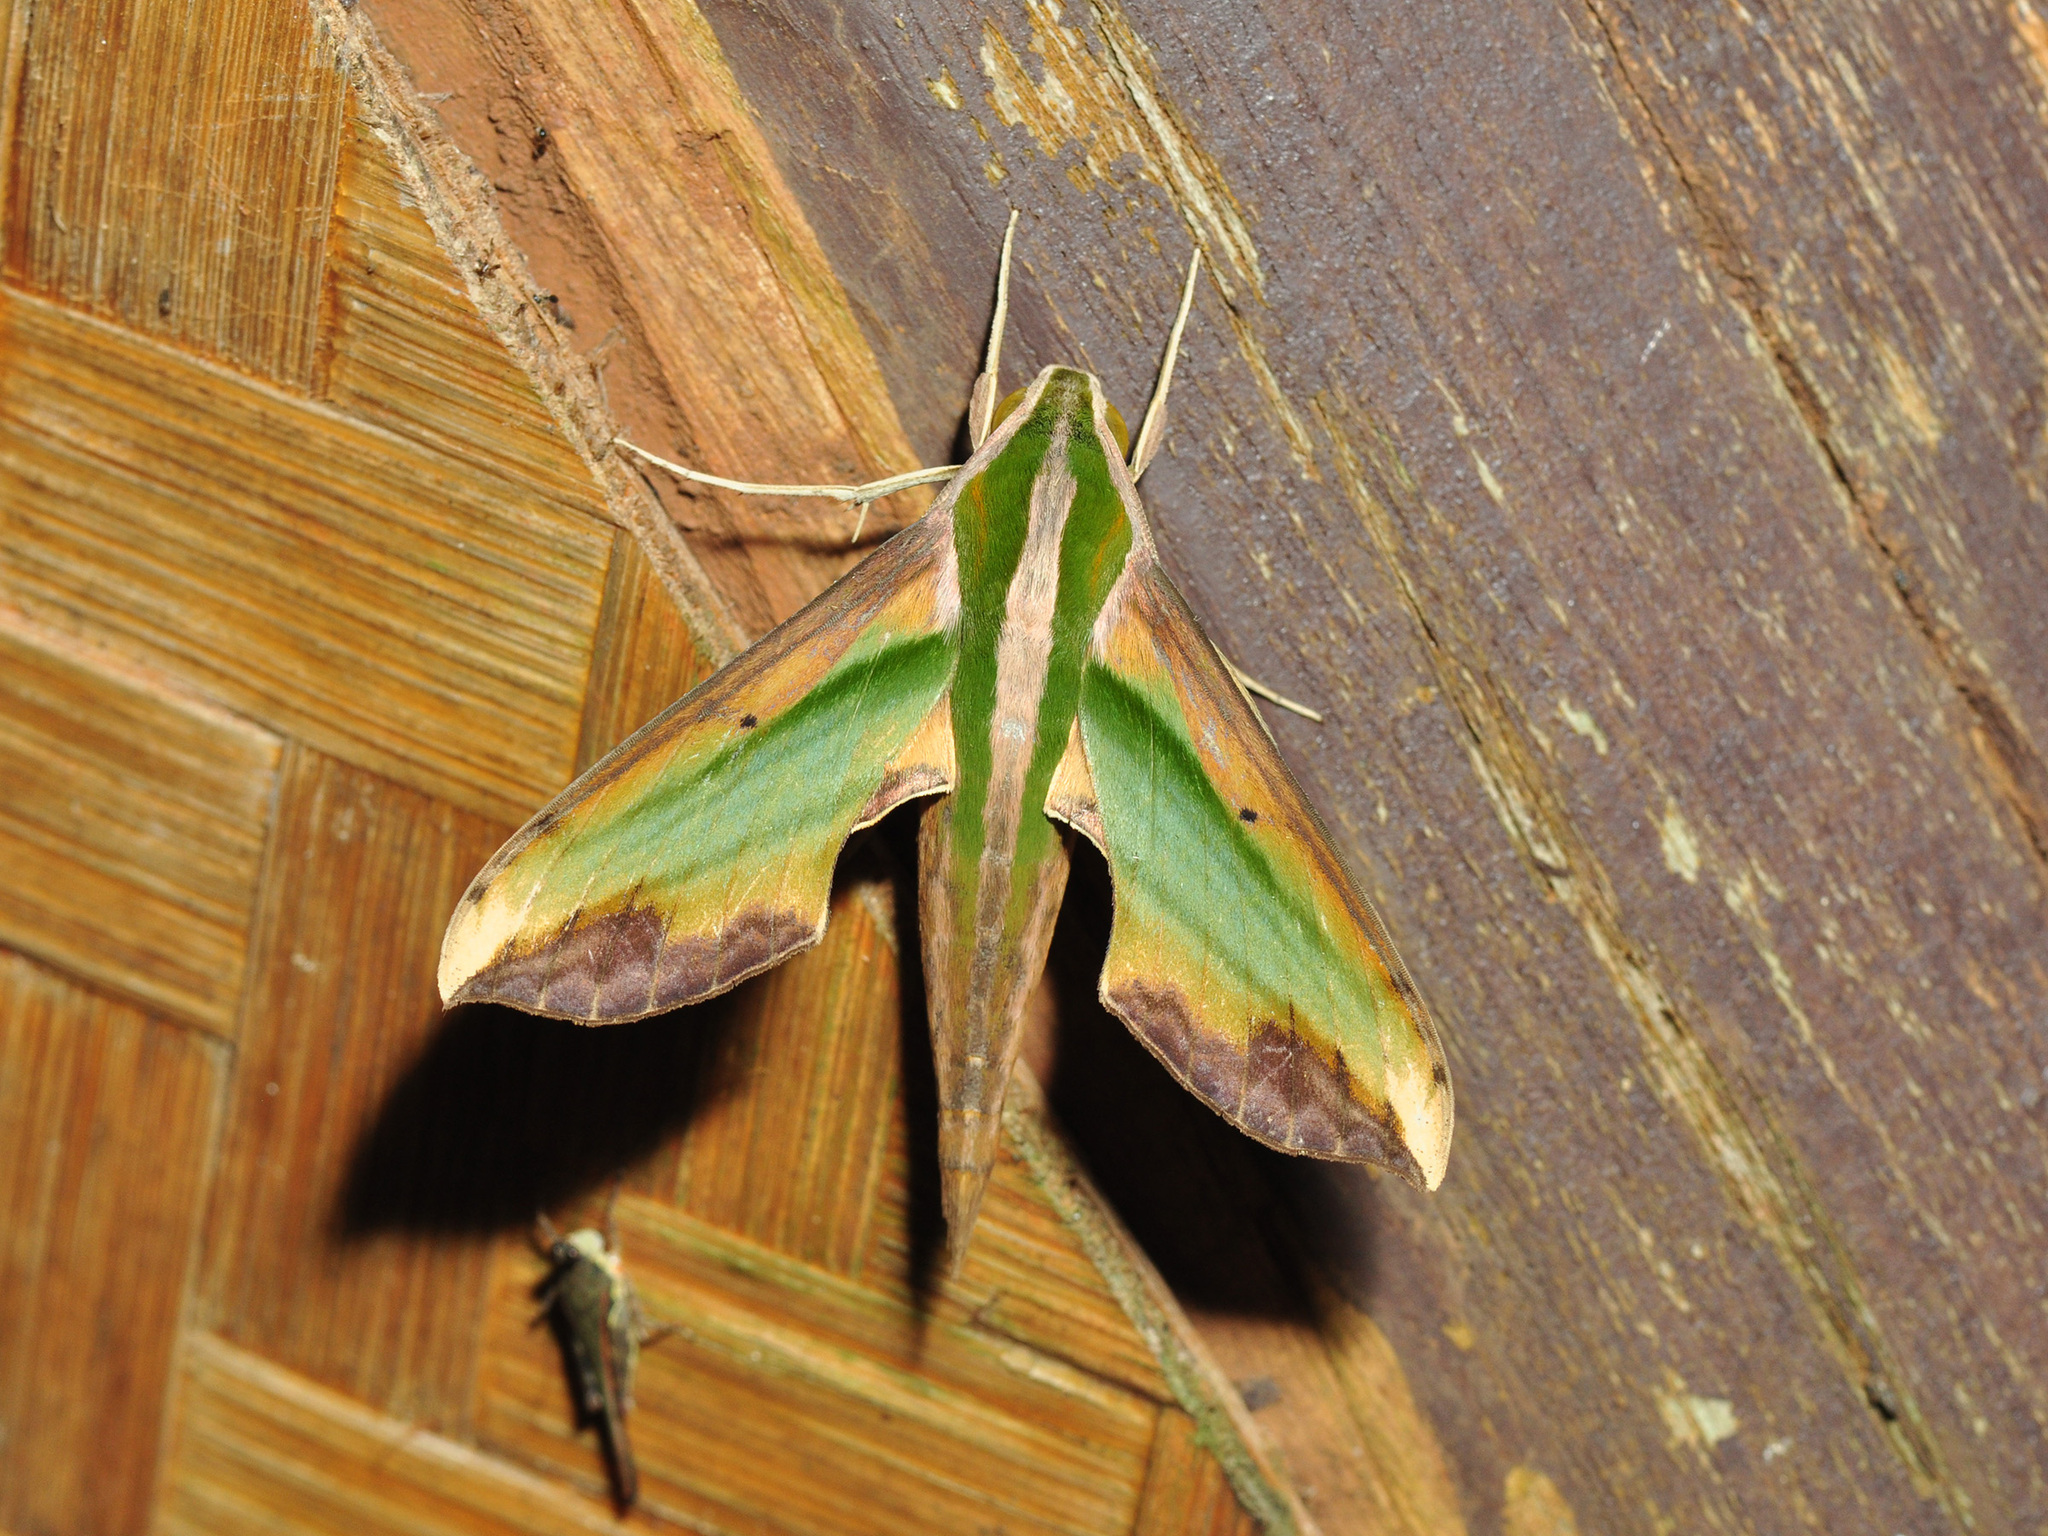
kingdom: Animalia
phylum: Arthropoda
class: Insecta
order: Lepidoptera
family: Sphingidae
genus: Pergesa
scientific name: Pergesa acteus
